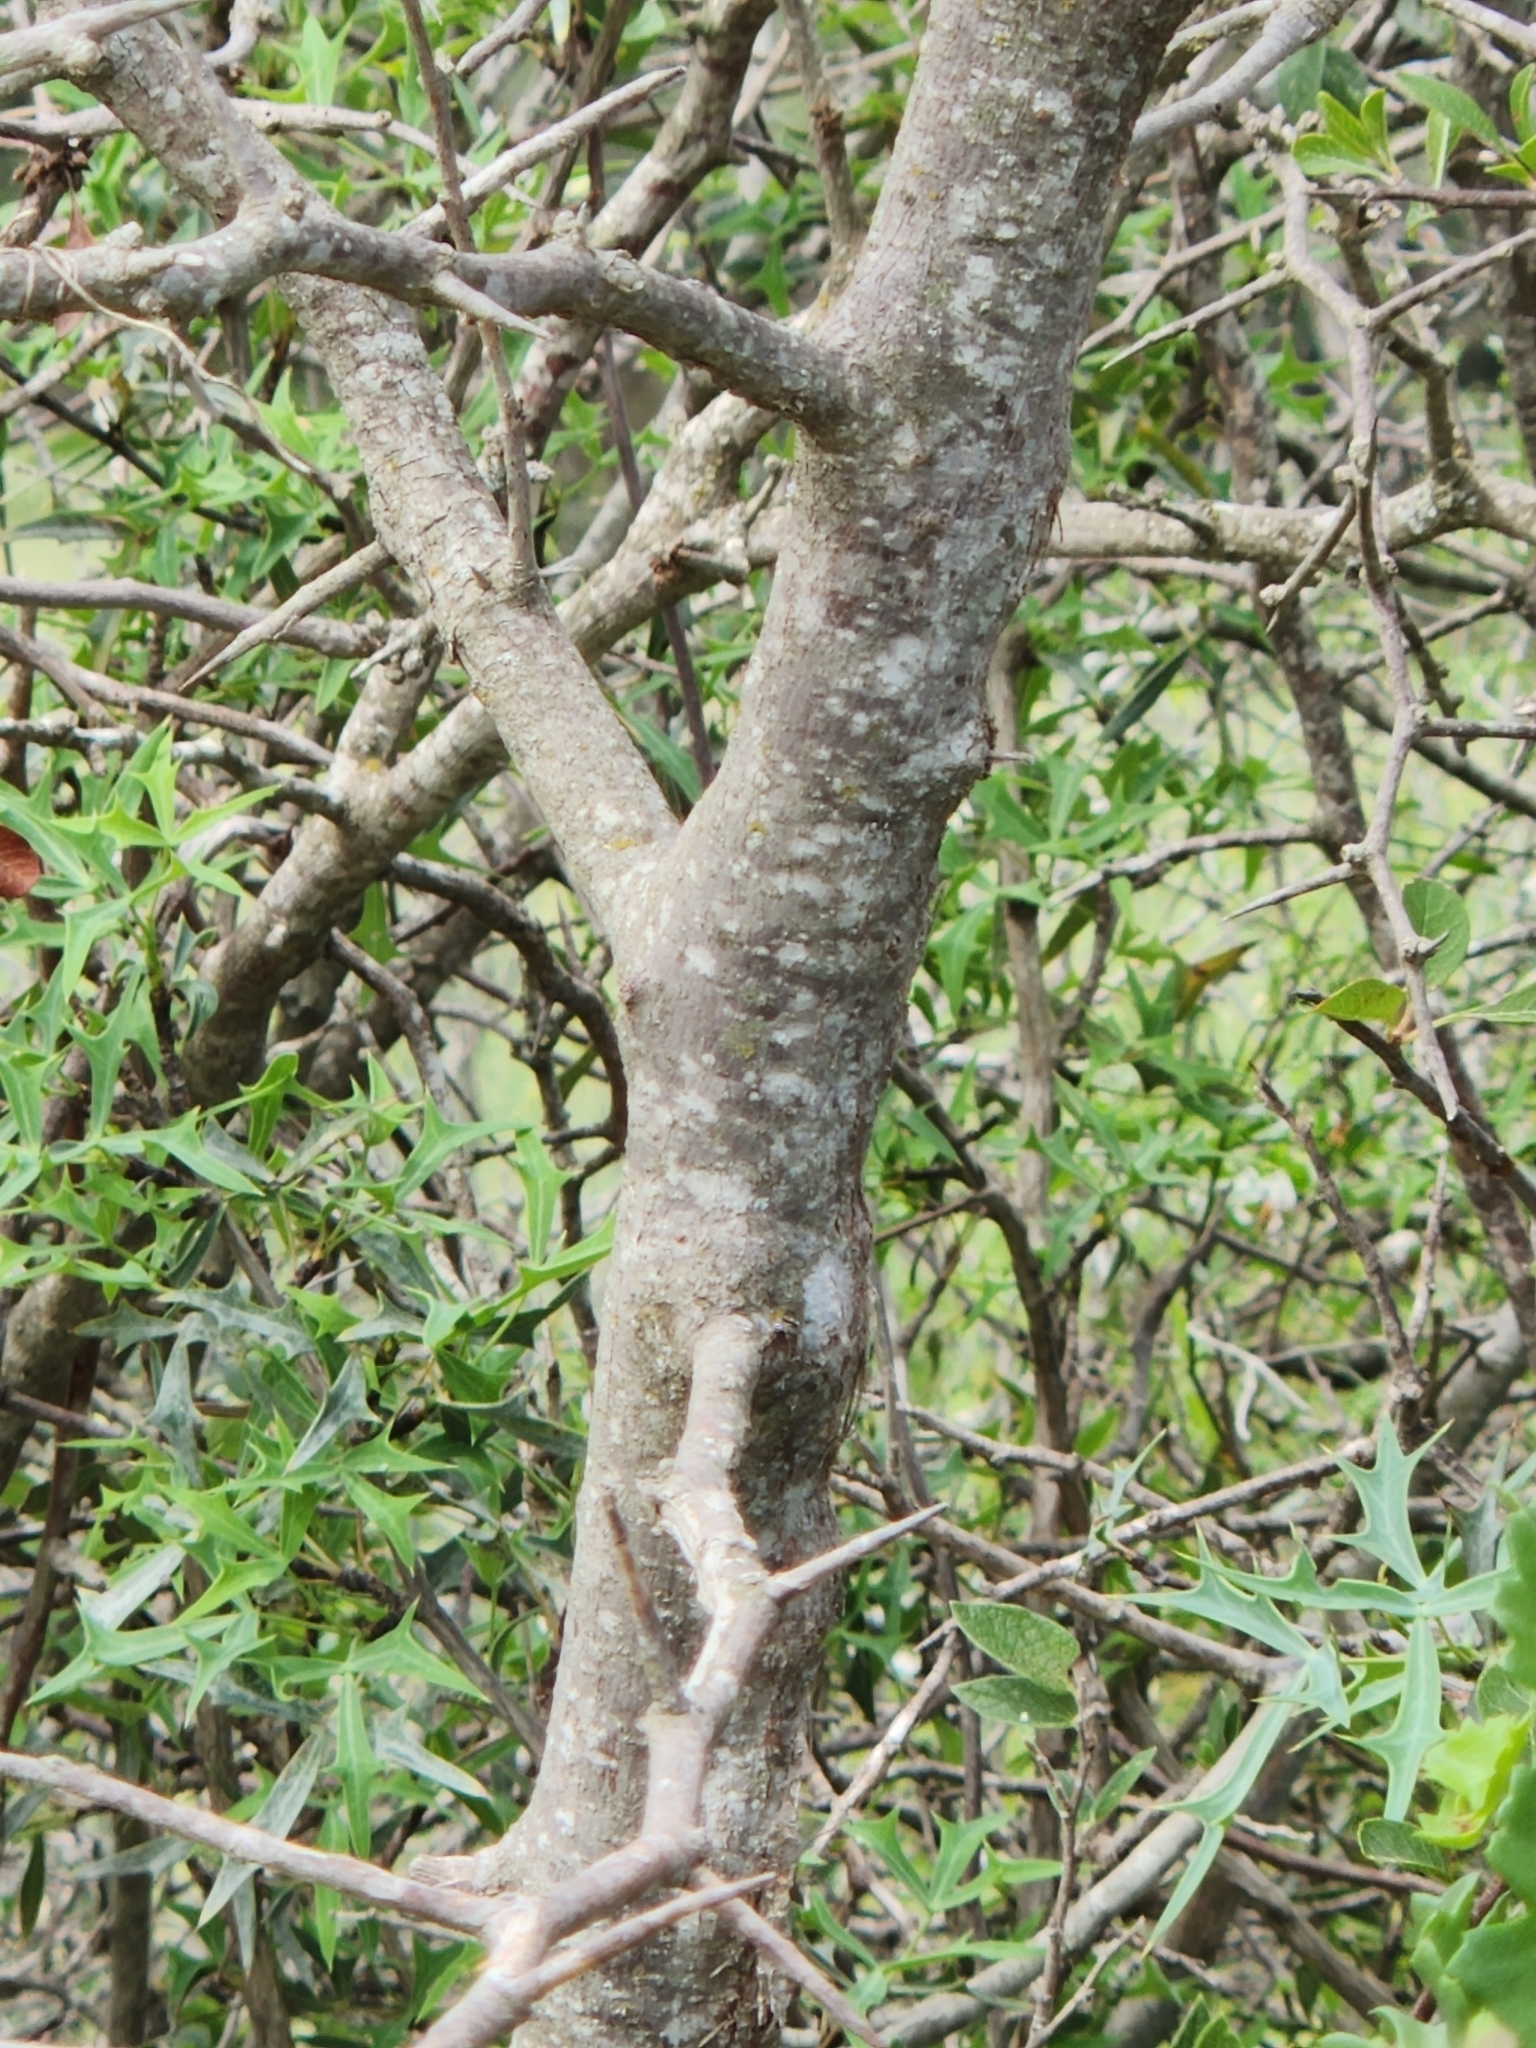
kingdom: Plantae
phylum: Tracheophyta
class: Magnoliopsida
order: Ericales
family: Sapotaceae
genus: Sideroxylon
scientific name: Sideroxylon lanuginosum
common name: Chittamwood
